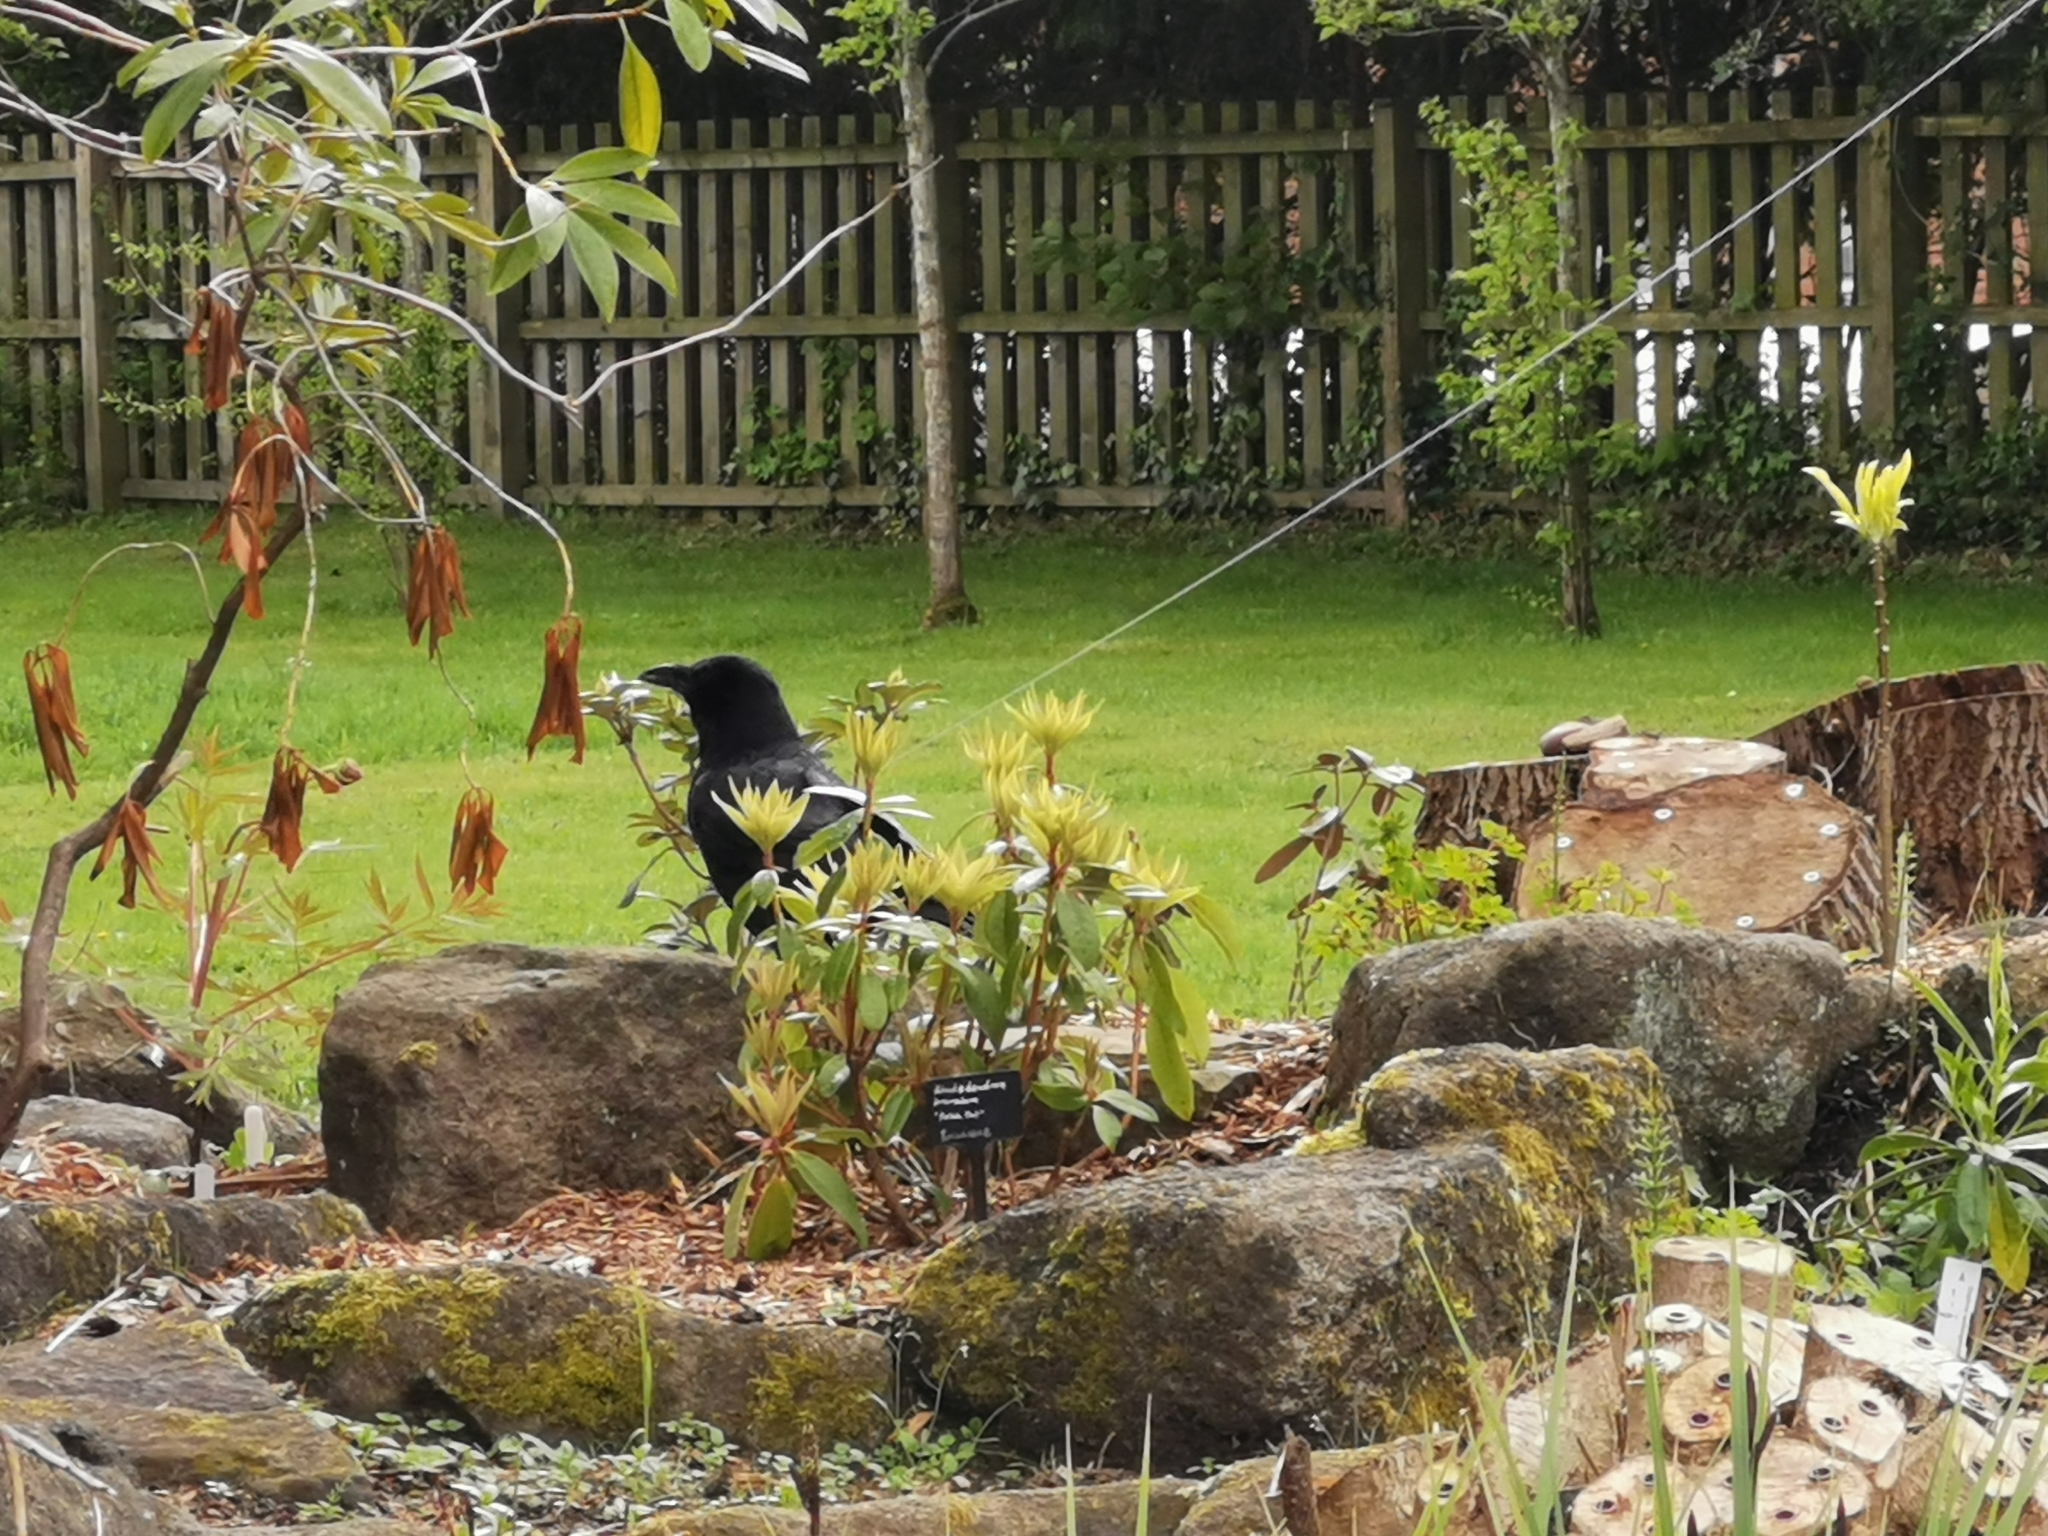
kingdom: Animalia
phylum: Chordata
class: Aves
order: Passeriformes
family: Corvidae
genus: Corvus
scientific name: Corvus corone
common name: Carrion crow
